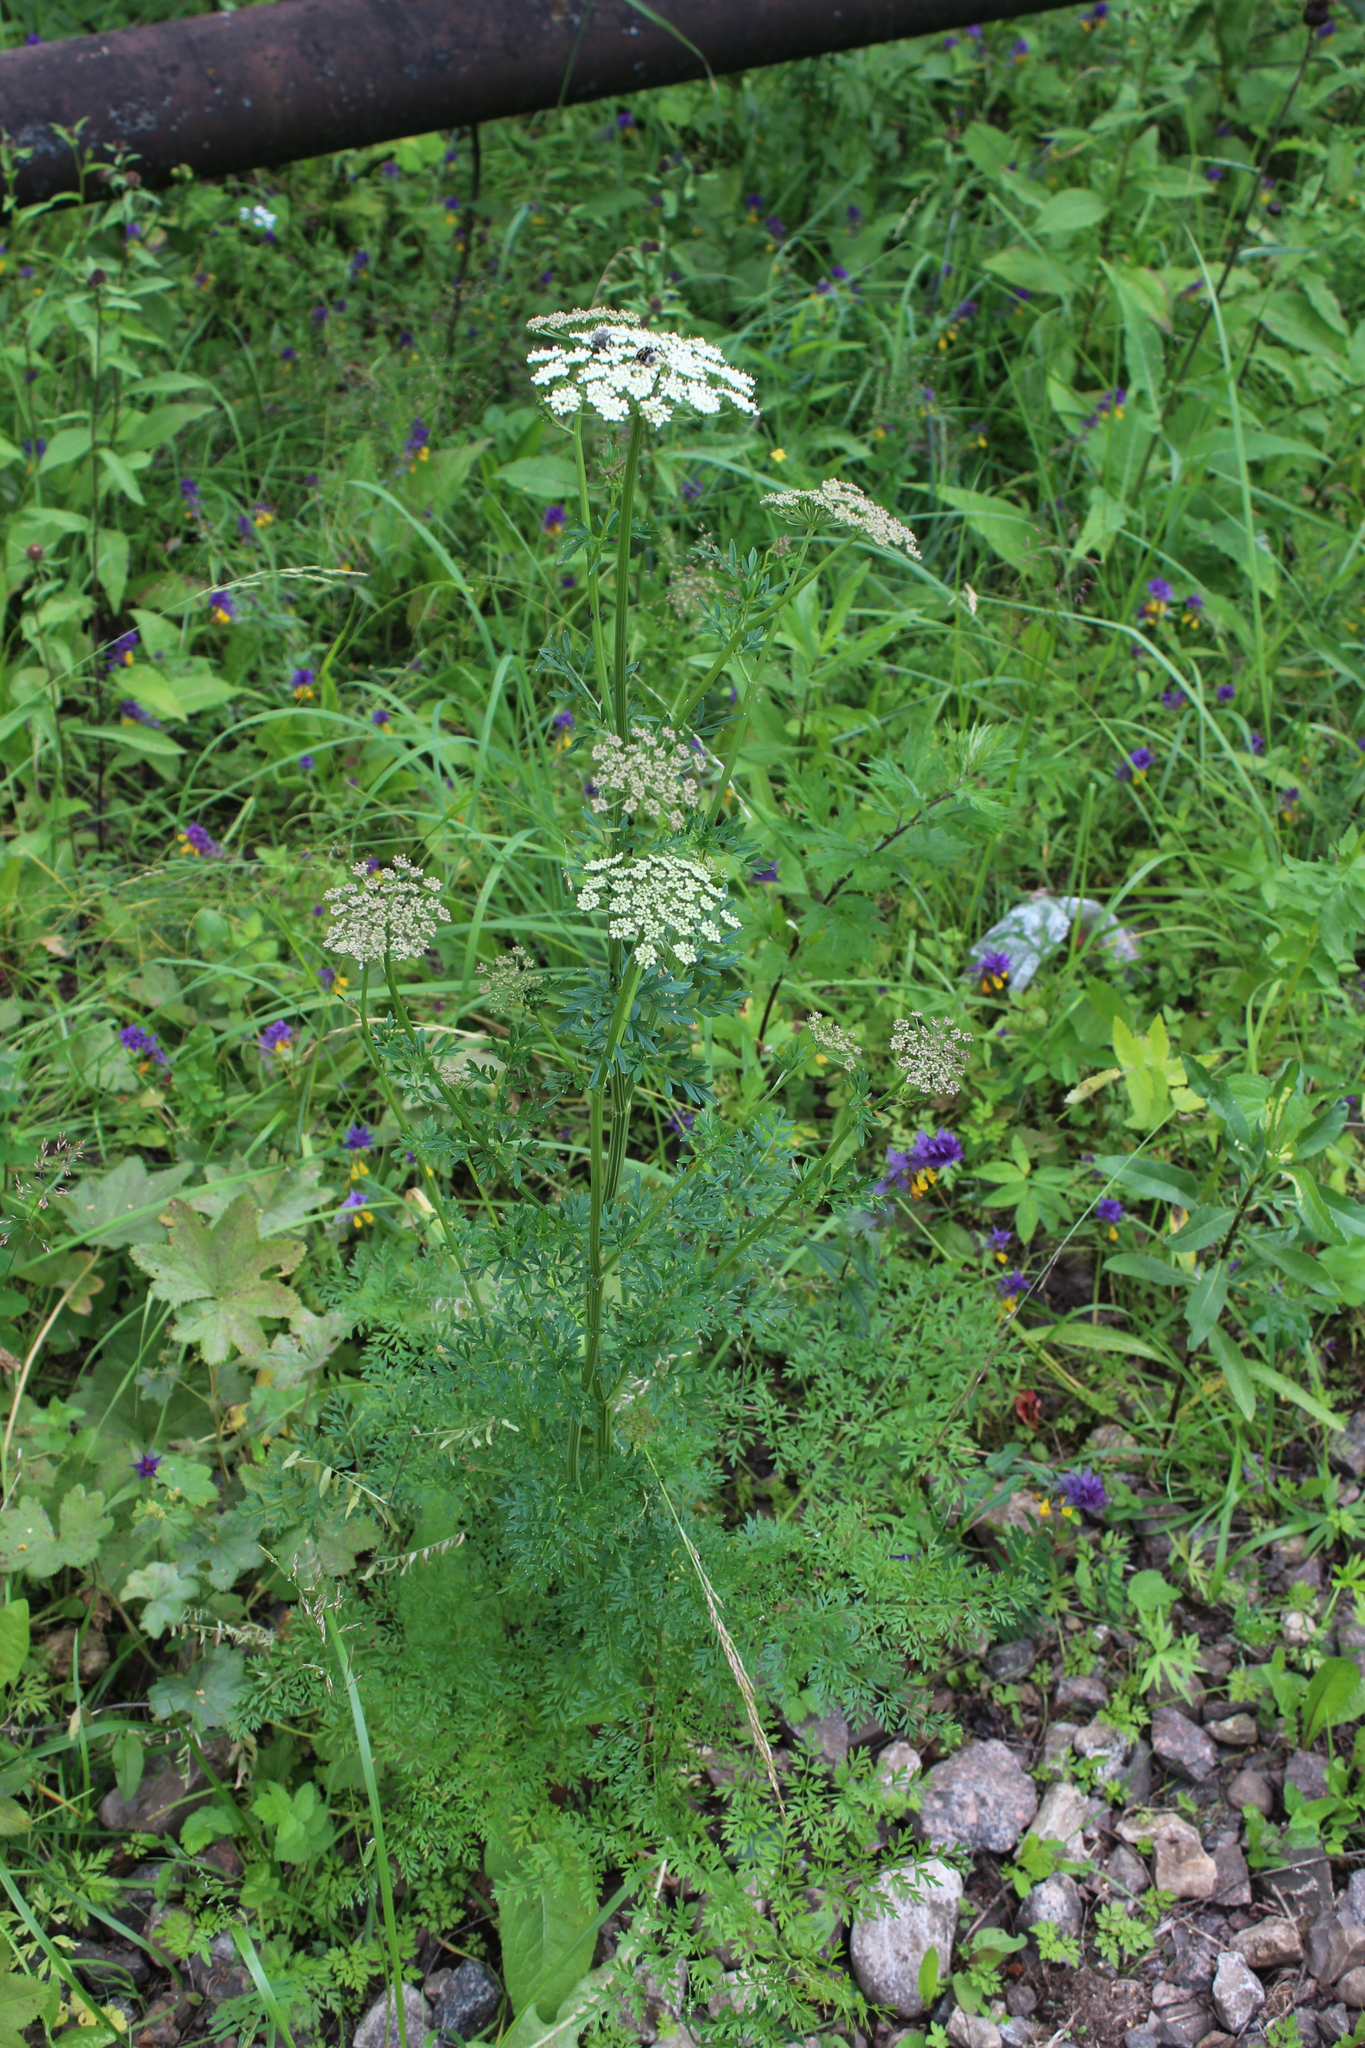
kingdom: Plantae
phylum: Tracheophyta
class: Magnoliopsida
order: Apiales
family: Apiaceae
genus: Selinum
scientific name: Selinum carvifolia
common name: Cambridge milk-parsley
